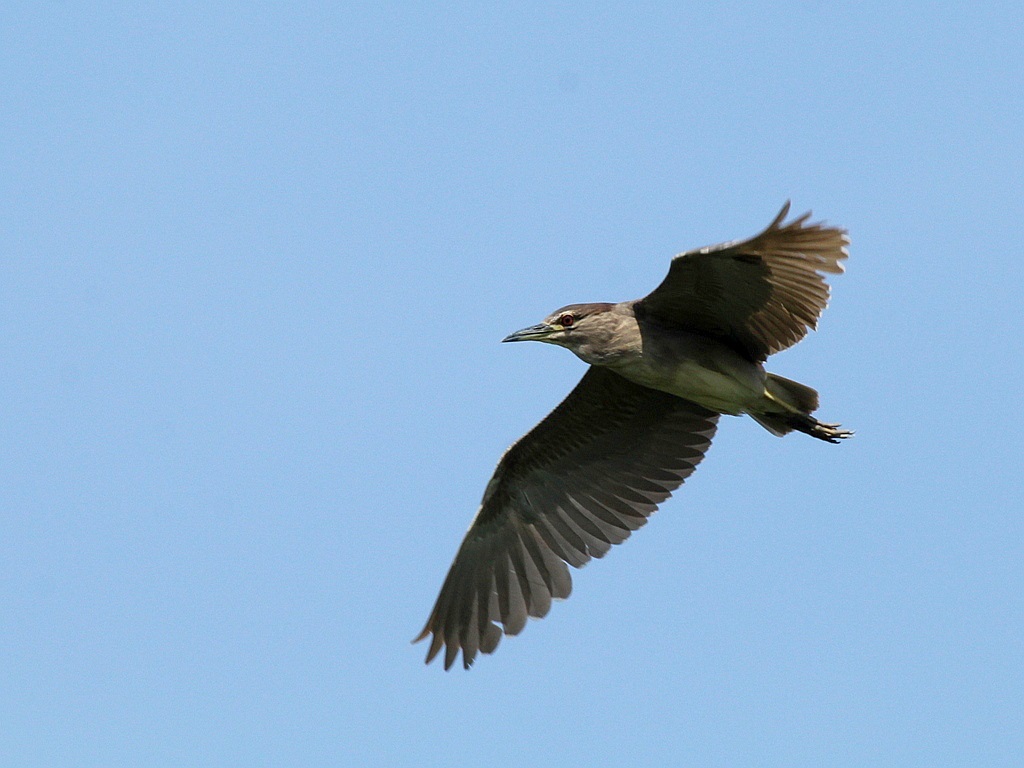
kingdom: Animalia
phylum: Chordata
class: Aves
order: Pelecaniformes
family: Ardeidae
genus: Nycticorax
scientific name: Nycticorax nycticorax
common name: Black-crowned night heron
